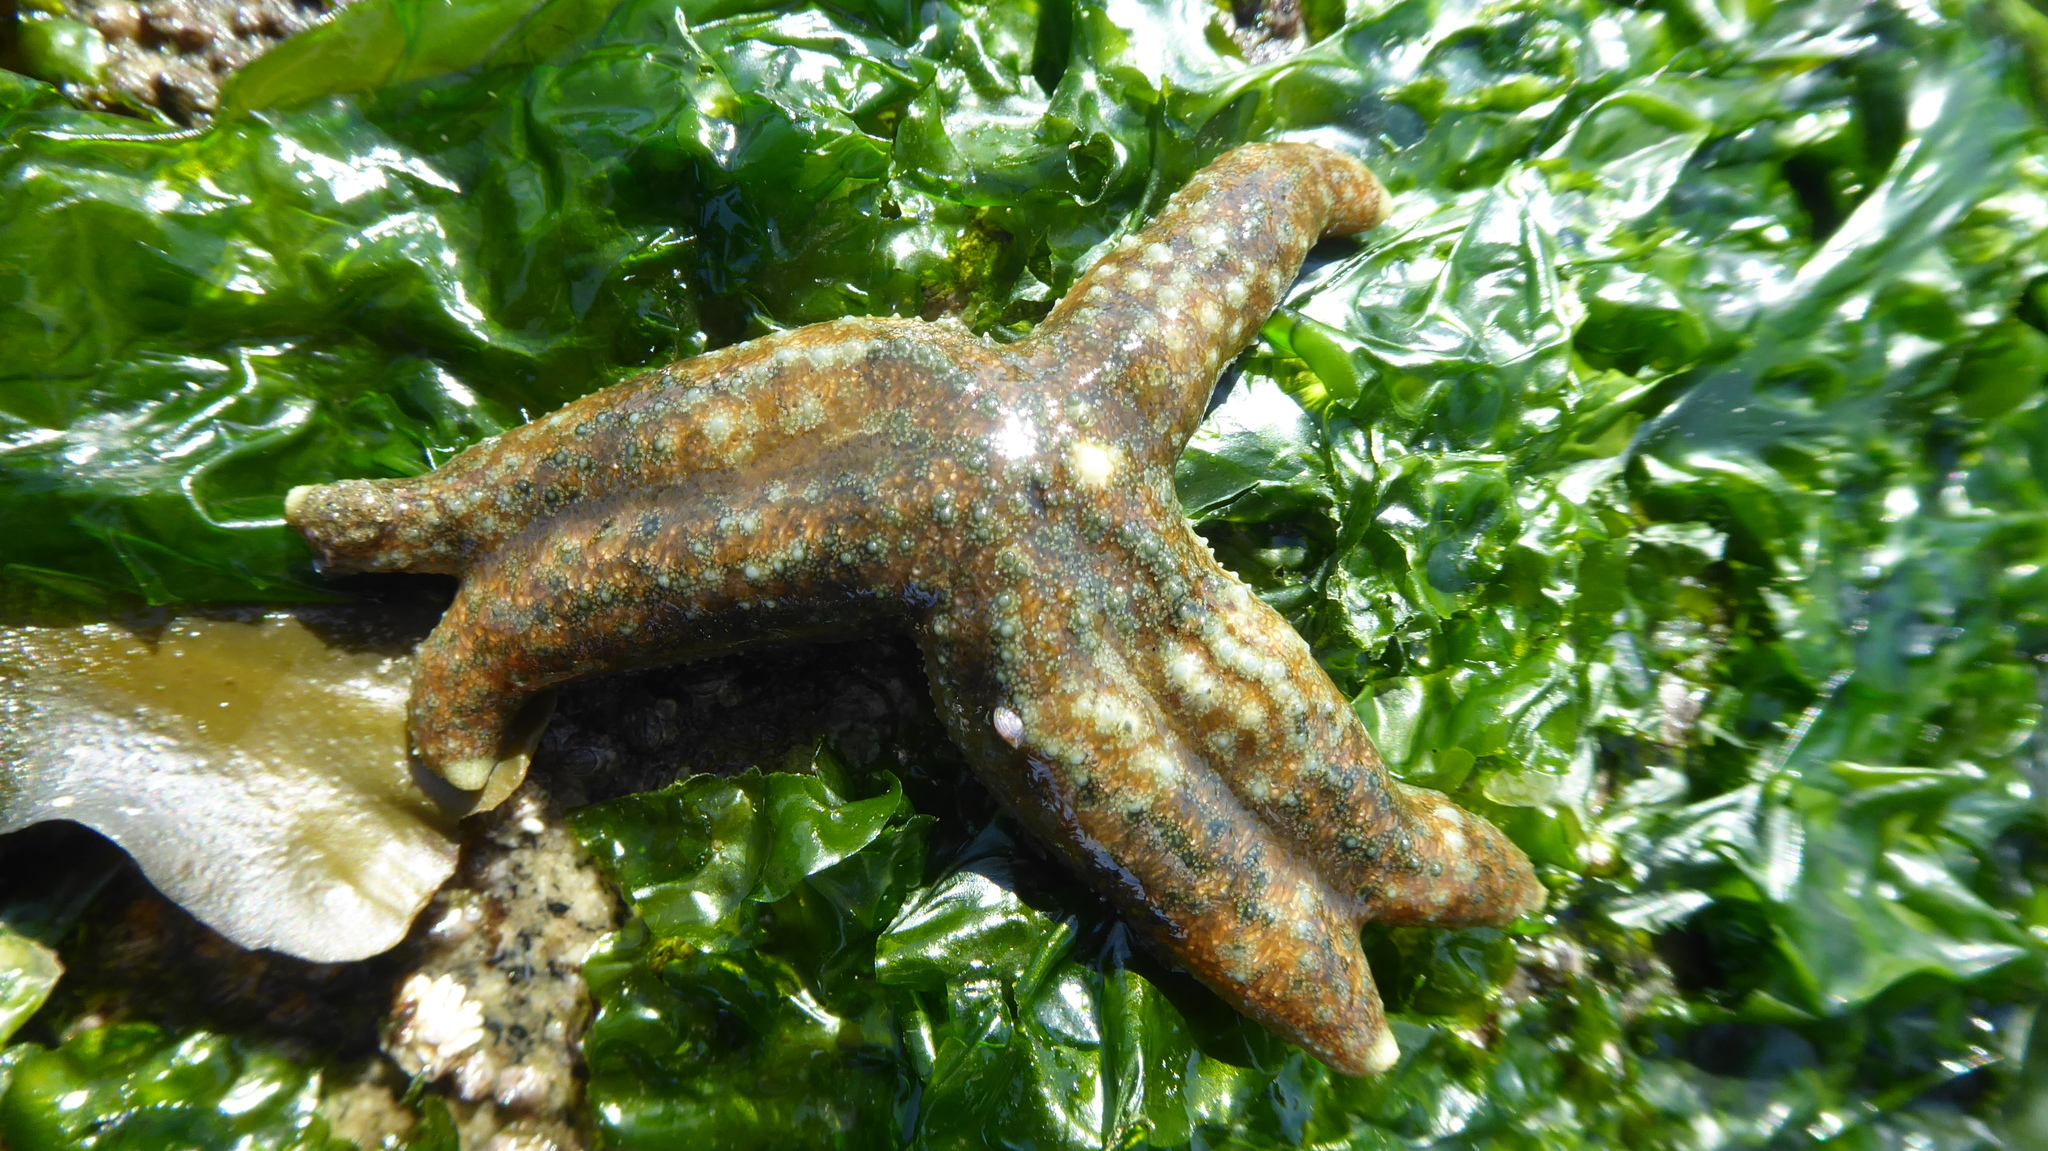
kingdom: Animalia
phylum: Echinodermata
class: Asteroidea
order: Forcipulatida
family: Asteriidae
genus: Evasterias
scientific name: Evasterias troschelii
